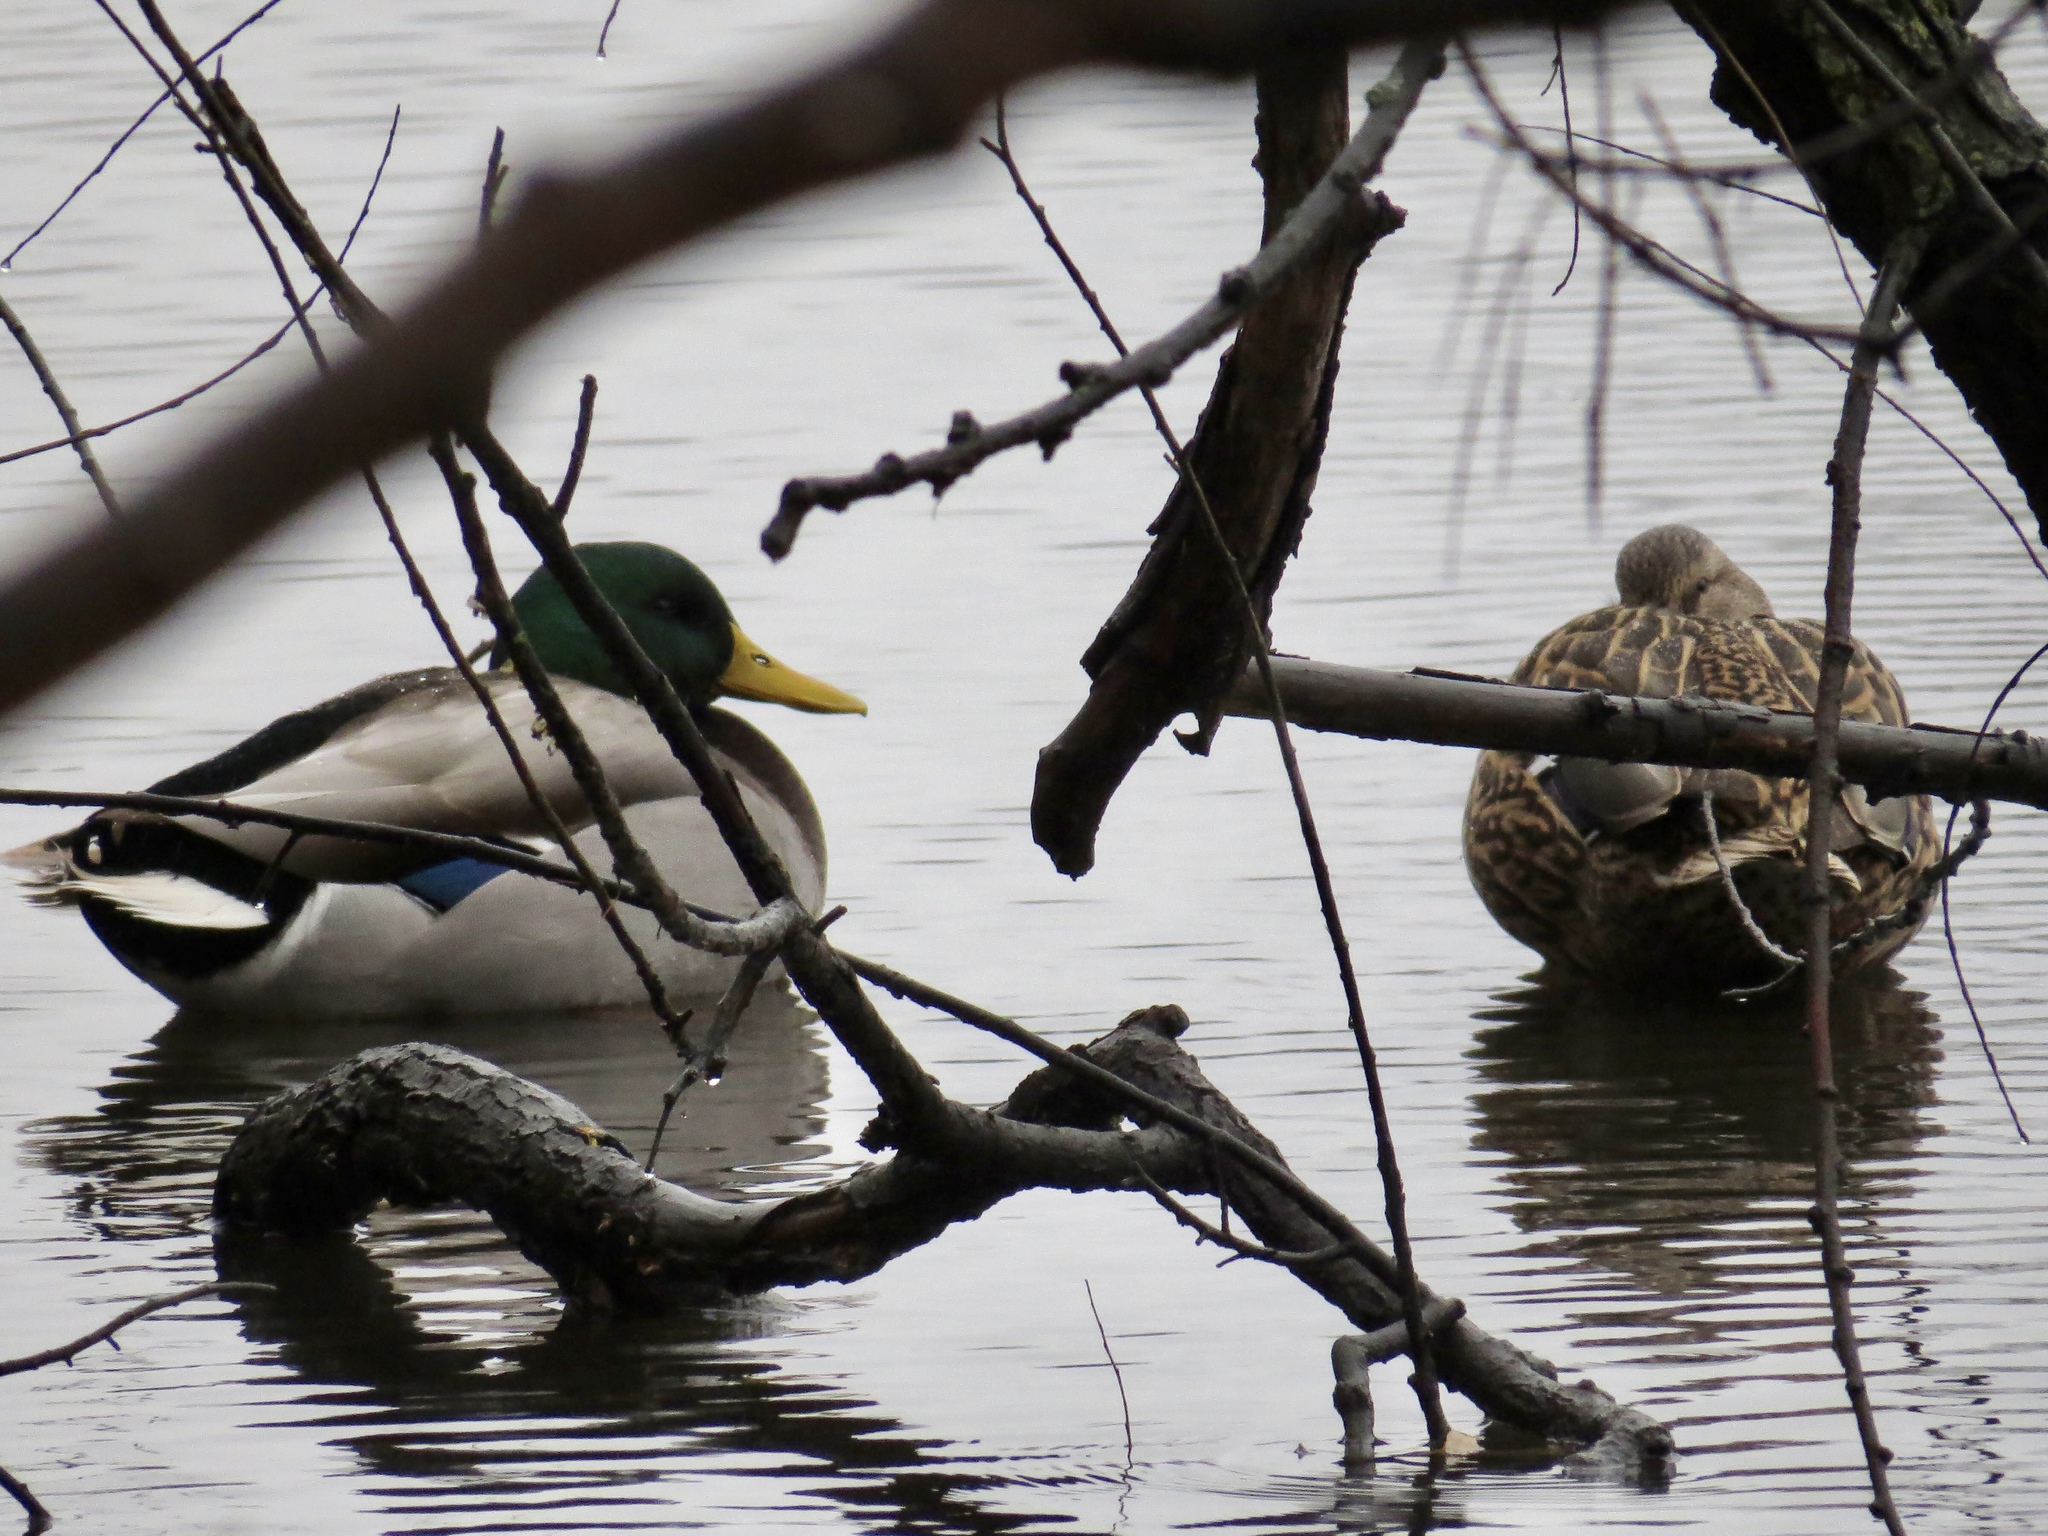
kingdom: Animalia
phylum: Chordata
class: Aves
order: Anseriformes
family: Anatidae
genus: Anas
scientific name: Anas platyrhynchos
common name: Mallard
